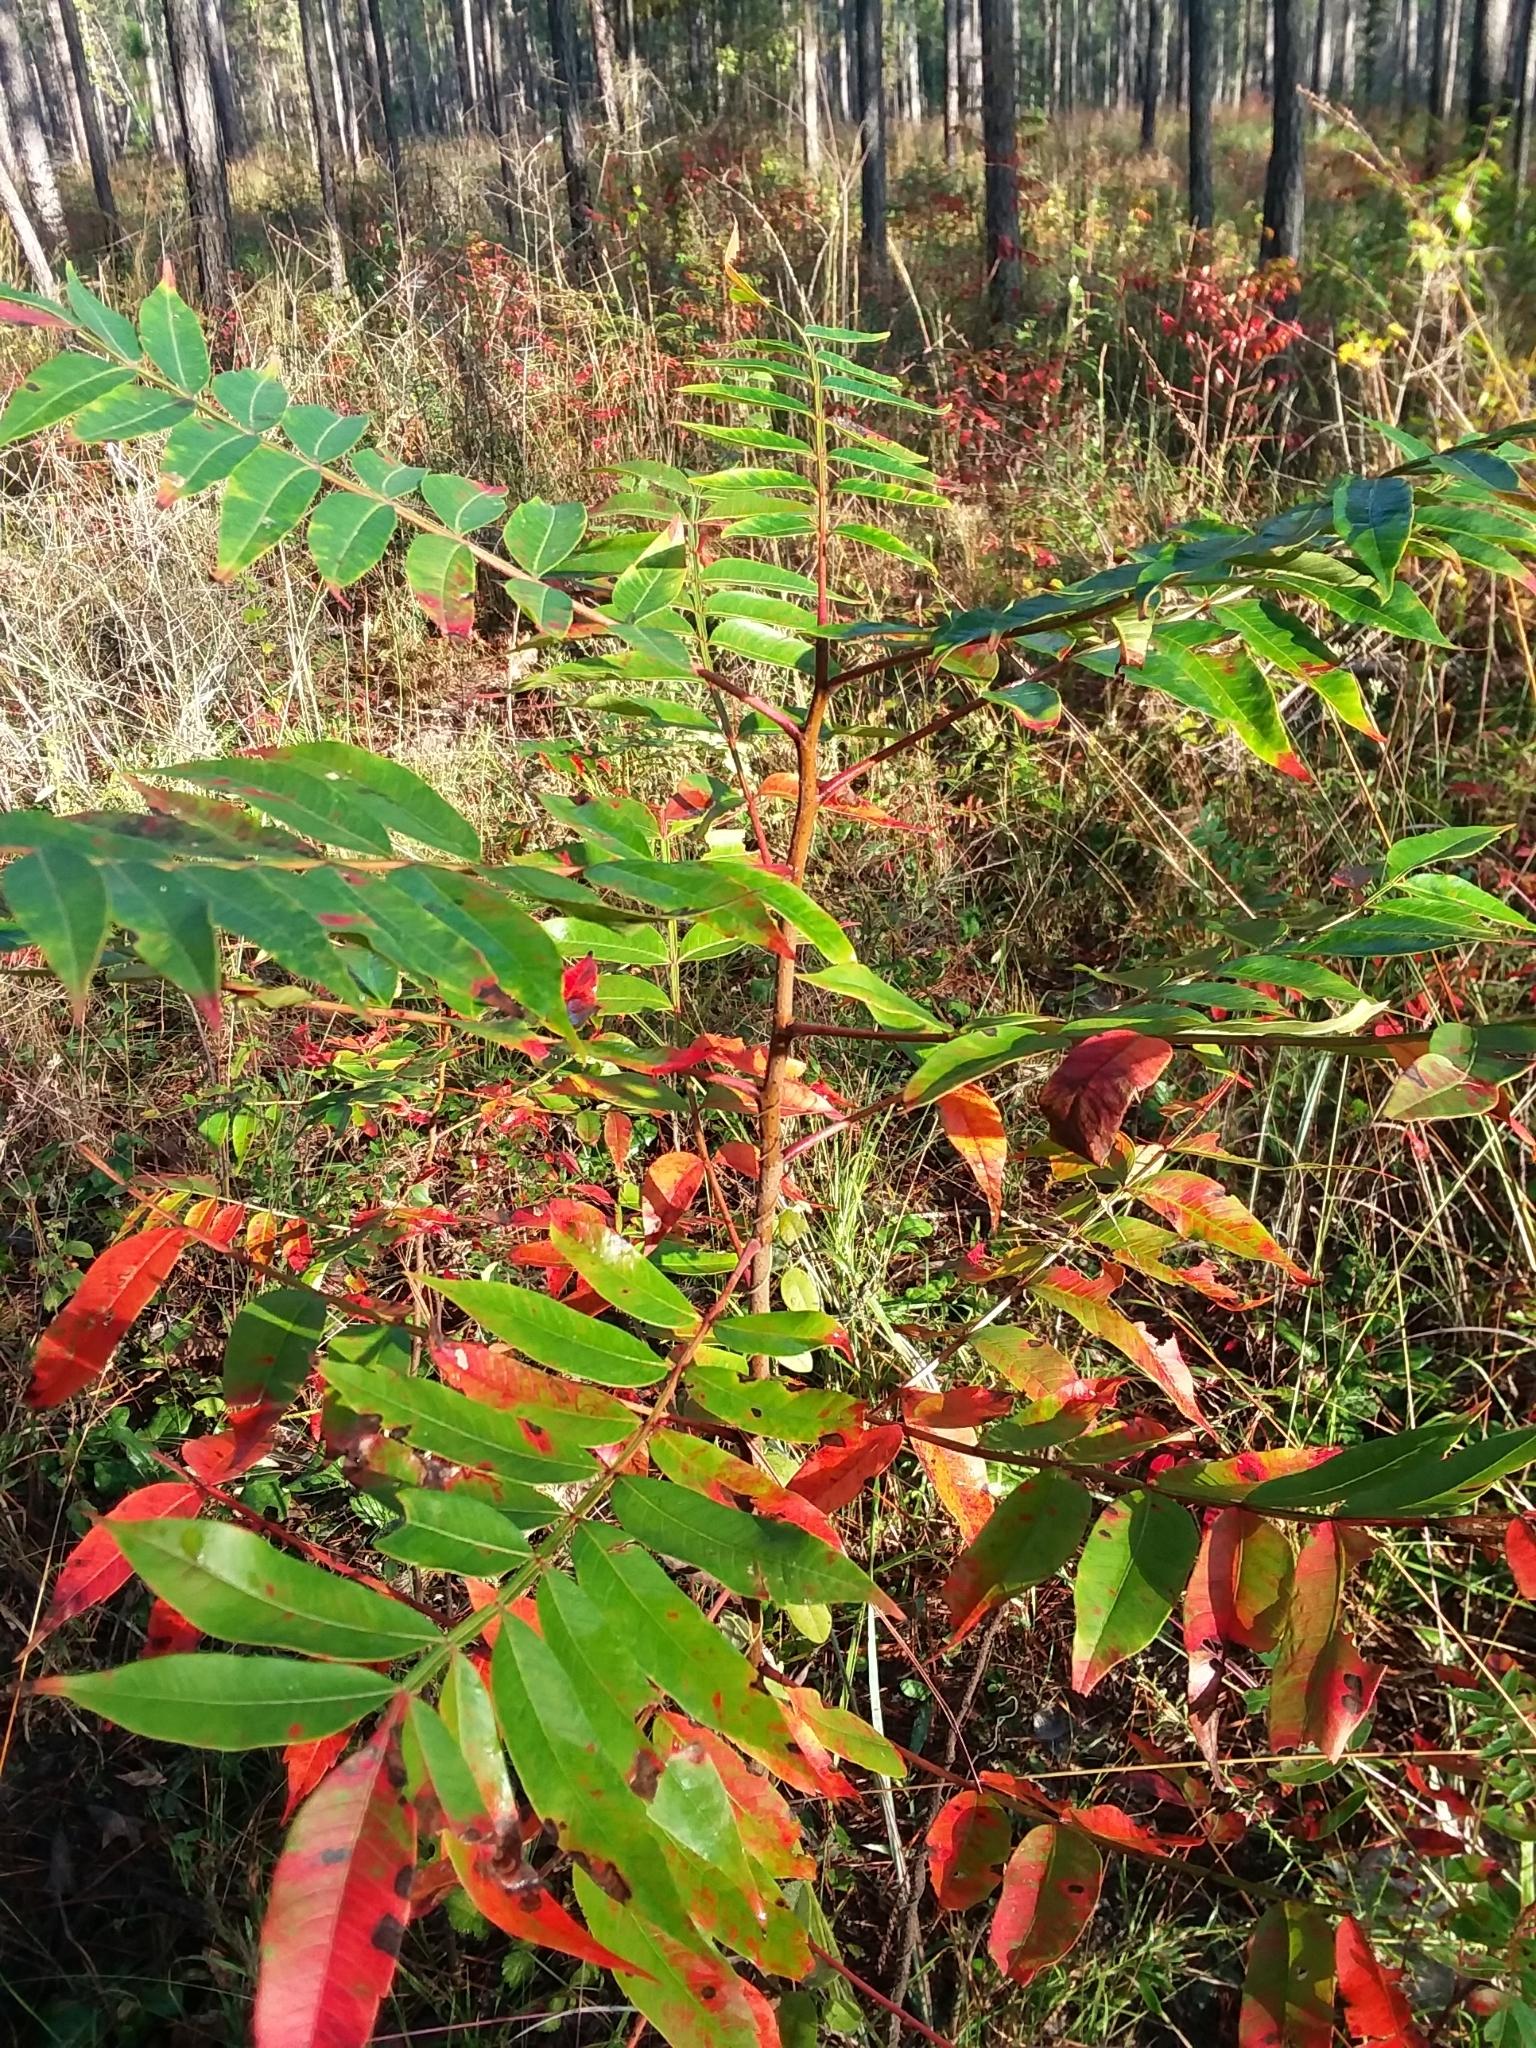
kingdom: Plantae
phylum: Tracheophyta
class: Magnoliopsida
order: Sapindales
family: Anacardiaceae
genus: Rhus
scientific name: Rhus copallina
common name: Shining sumac
